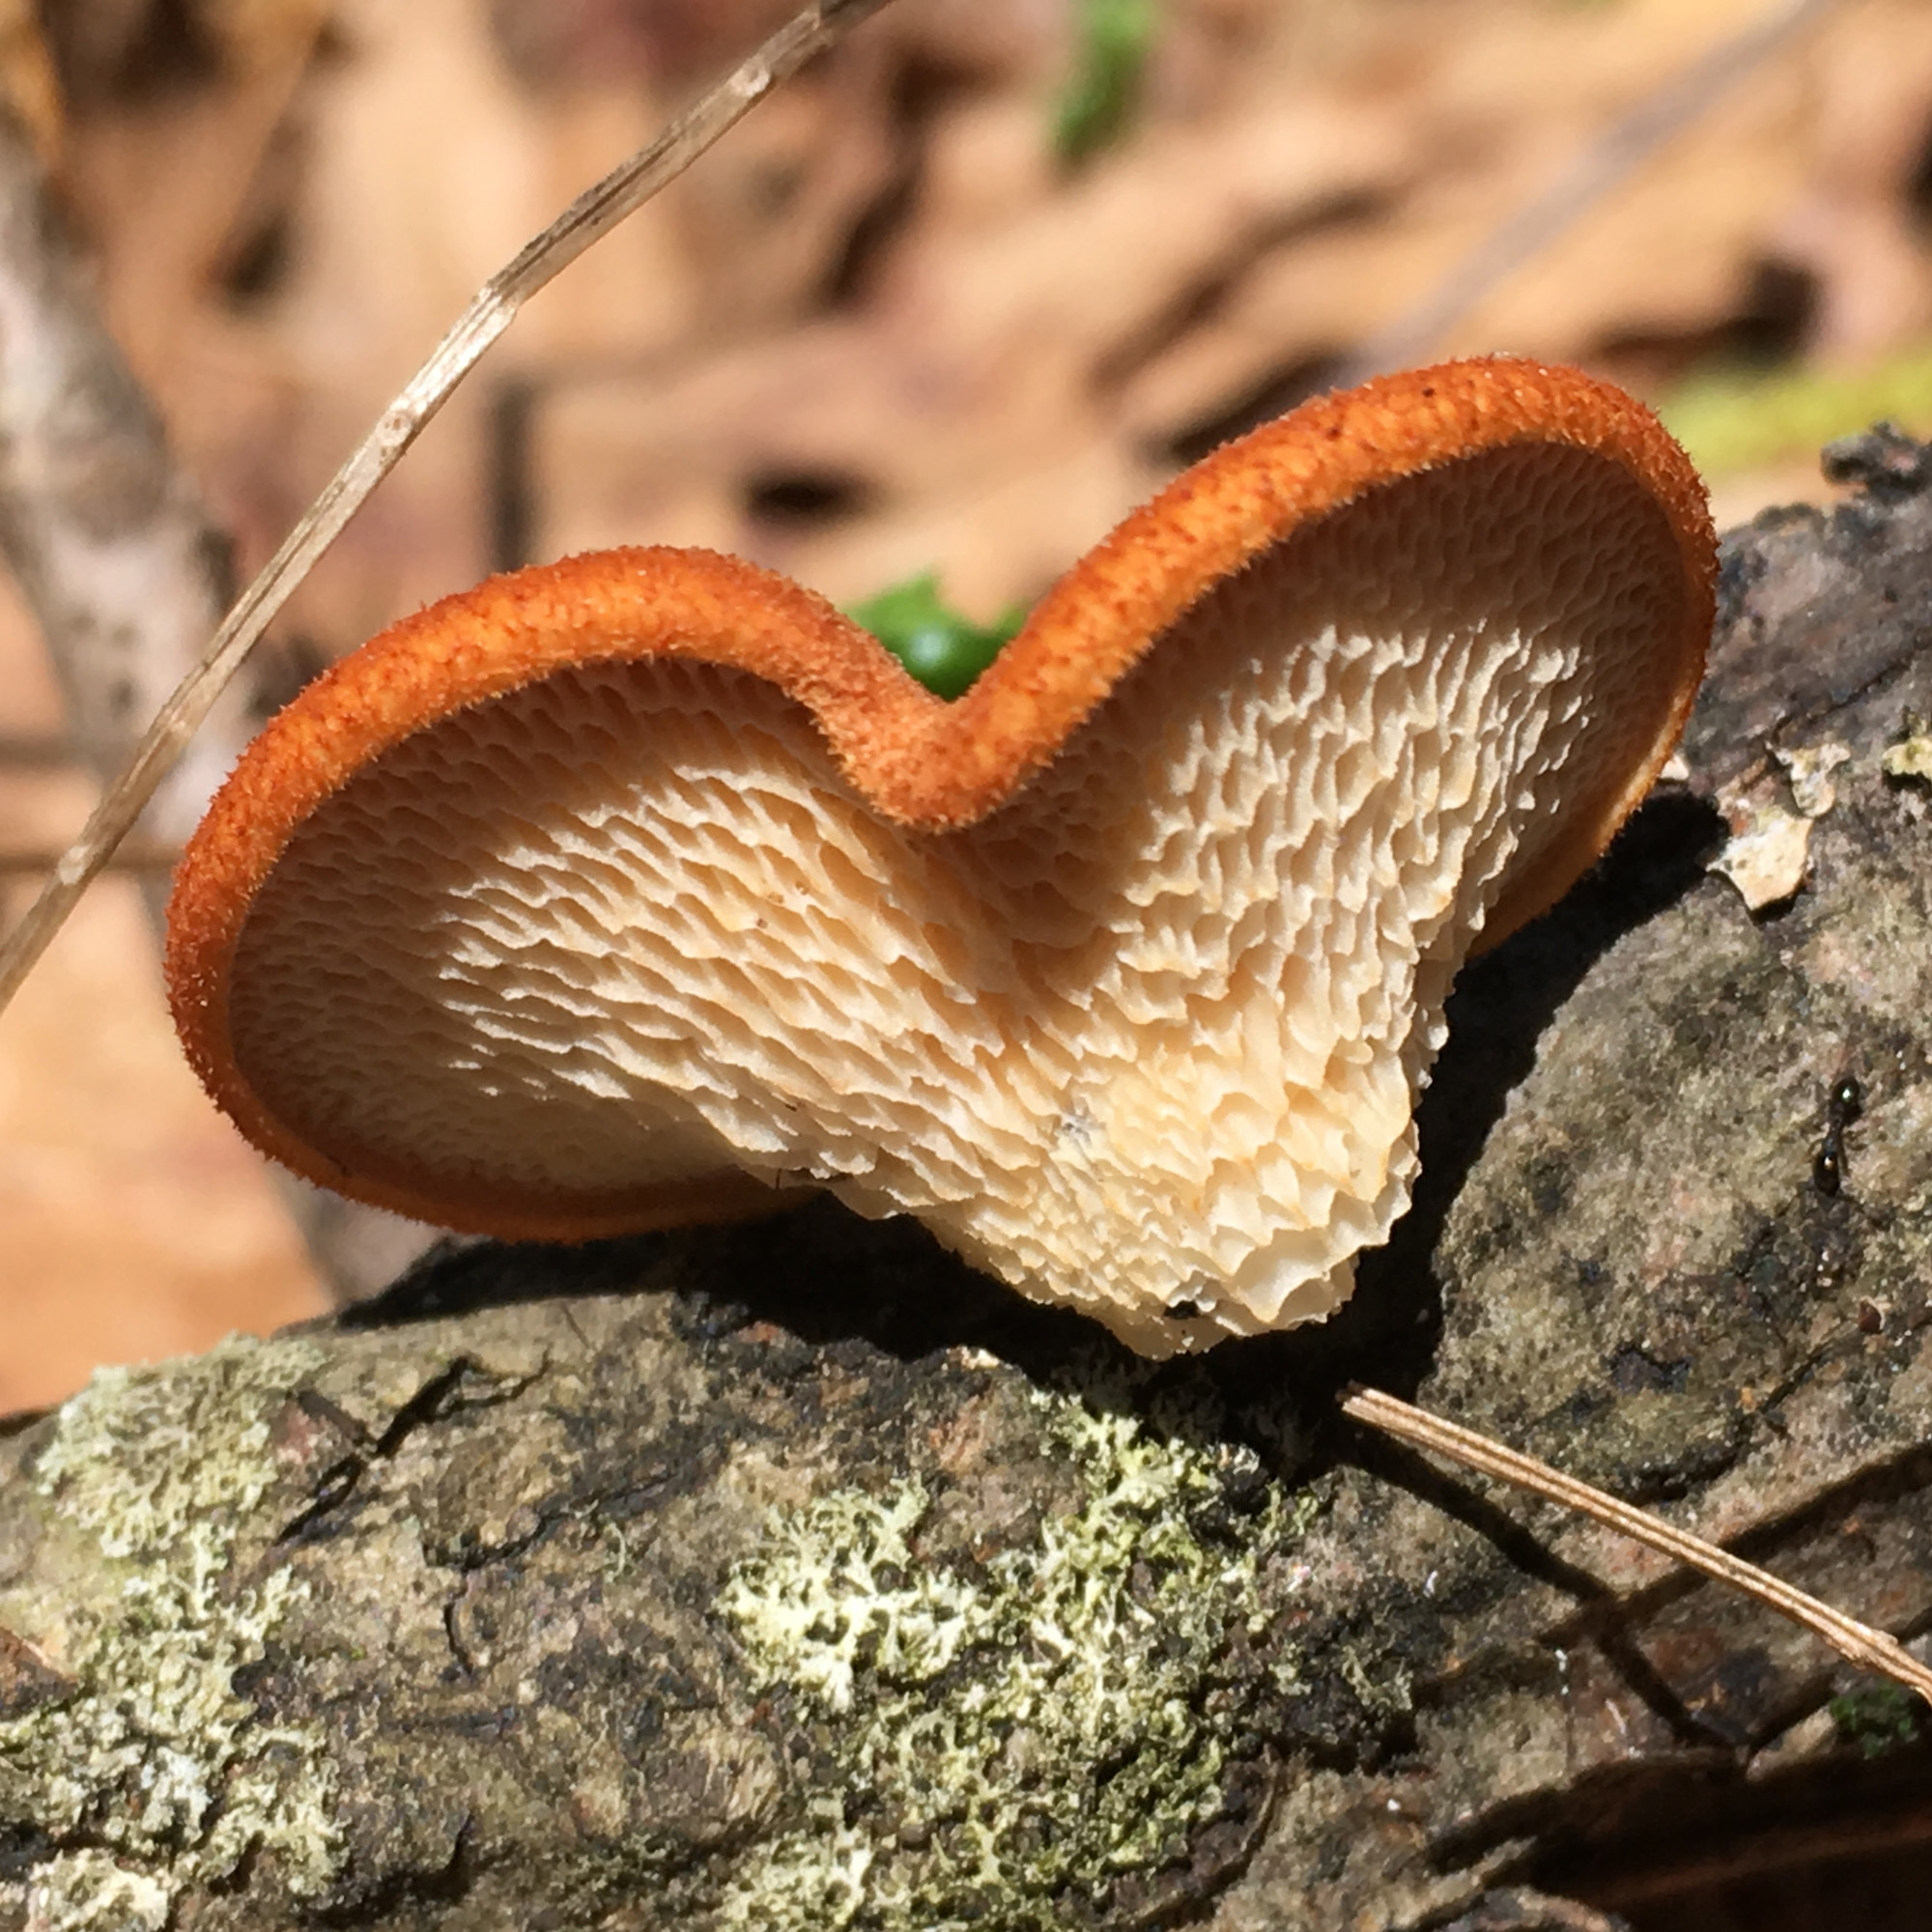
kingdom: Fungi
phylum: Basidiomycota
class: Agaricomycetes
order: Polyporales
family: Polyporaceae
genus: Neofavolus
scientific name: Neofavolus alveolaris
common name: Hexagonal-pored polypore
